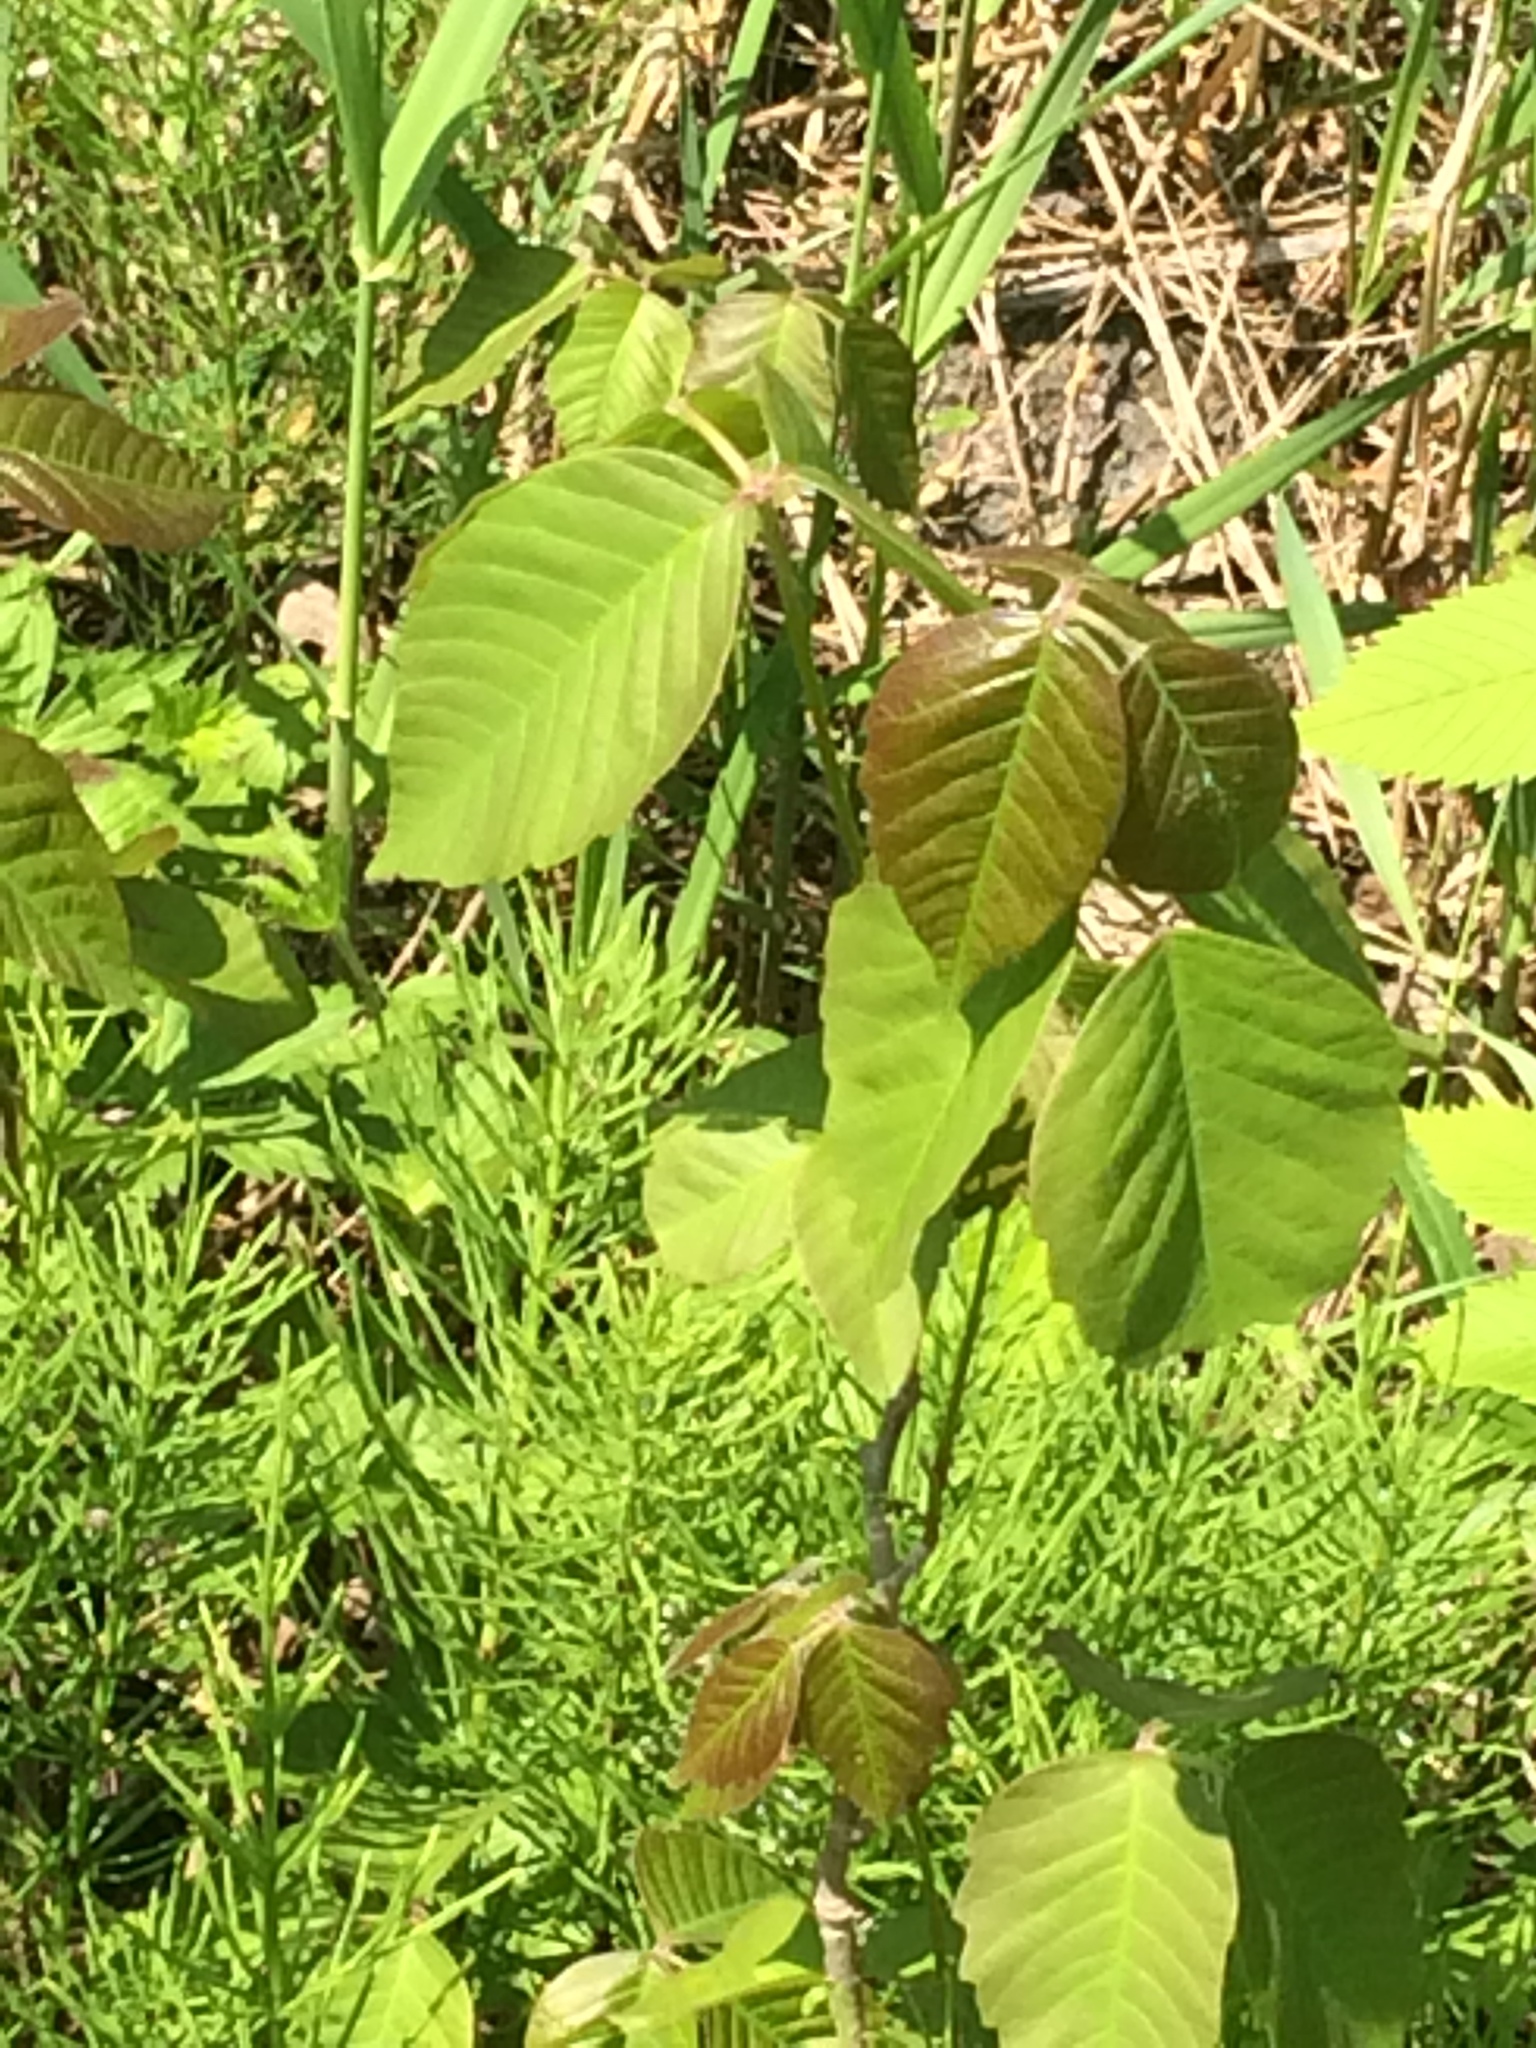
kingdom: Plantae
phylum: Tracheophyta
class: Magnoliopsida
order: Sapindales
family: Anacardiaceae
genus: Toxicodendron
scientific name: Toxicodendron rydbergii
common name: Rydberg's poison-ivy
